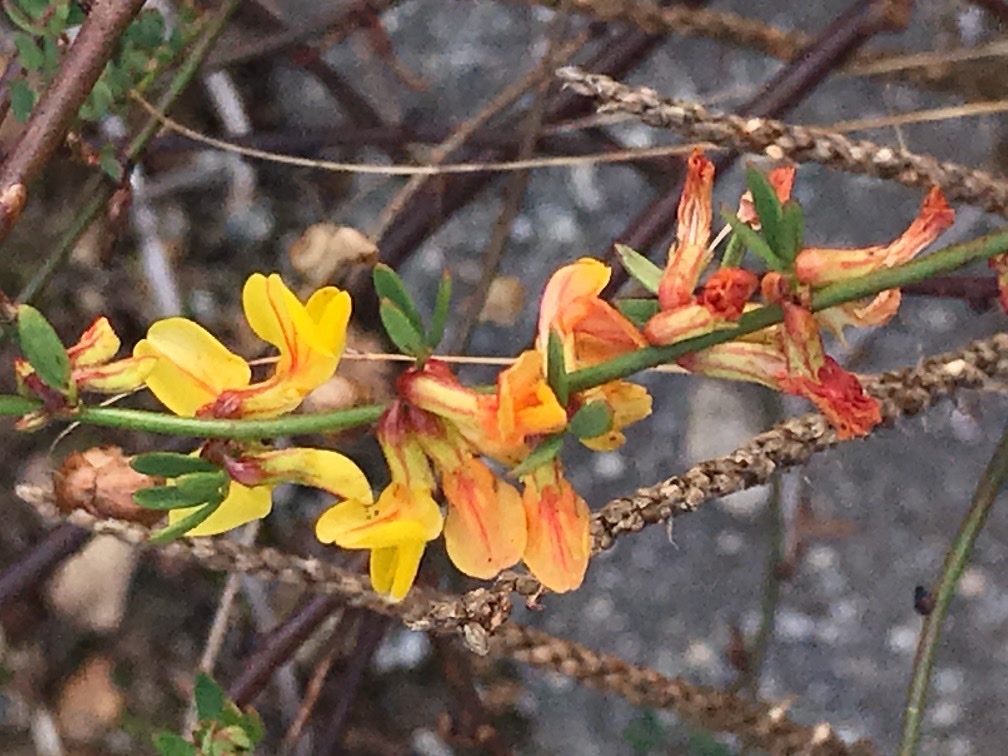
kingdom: Plantae
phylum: Tracheophyta
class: Magnoliopsida
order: Fabales
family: Fabaceae
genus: Acmispon
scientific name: Acmispon glaber
